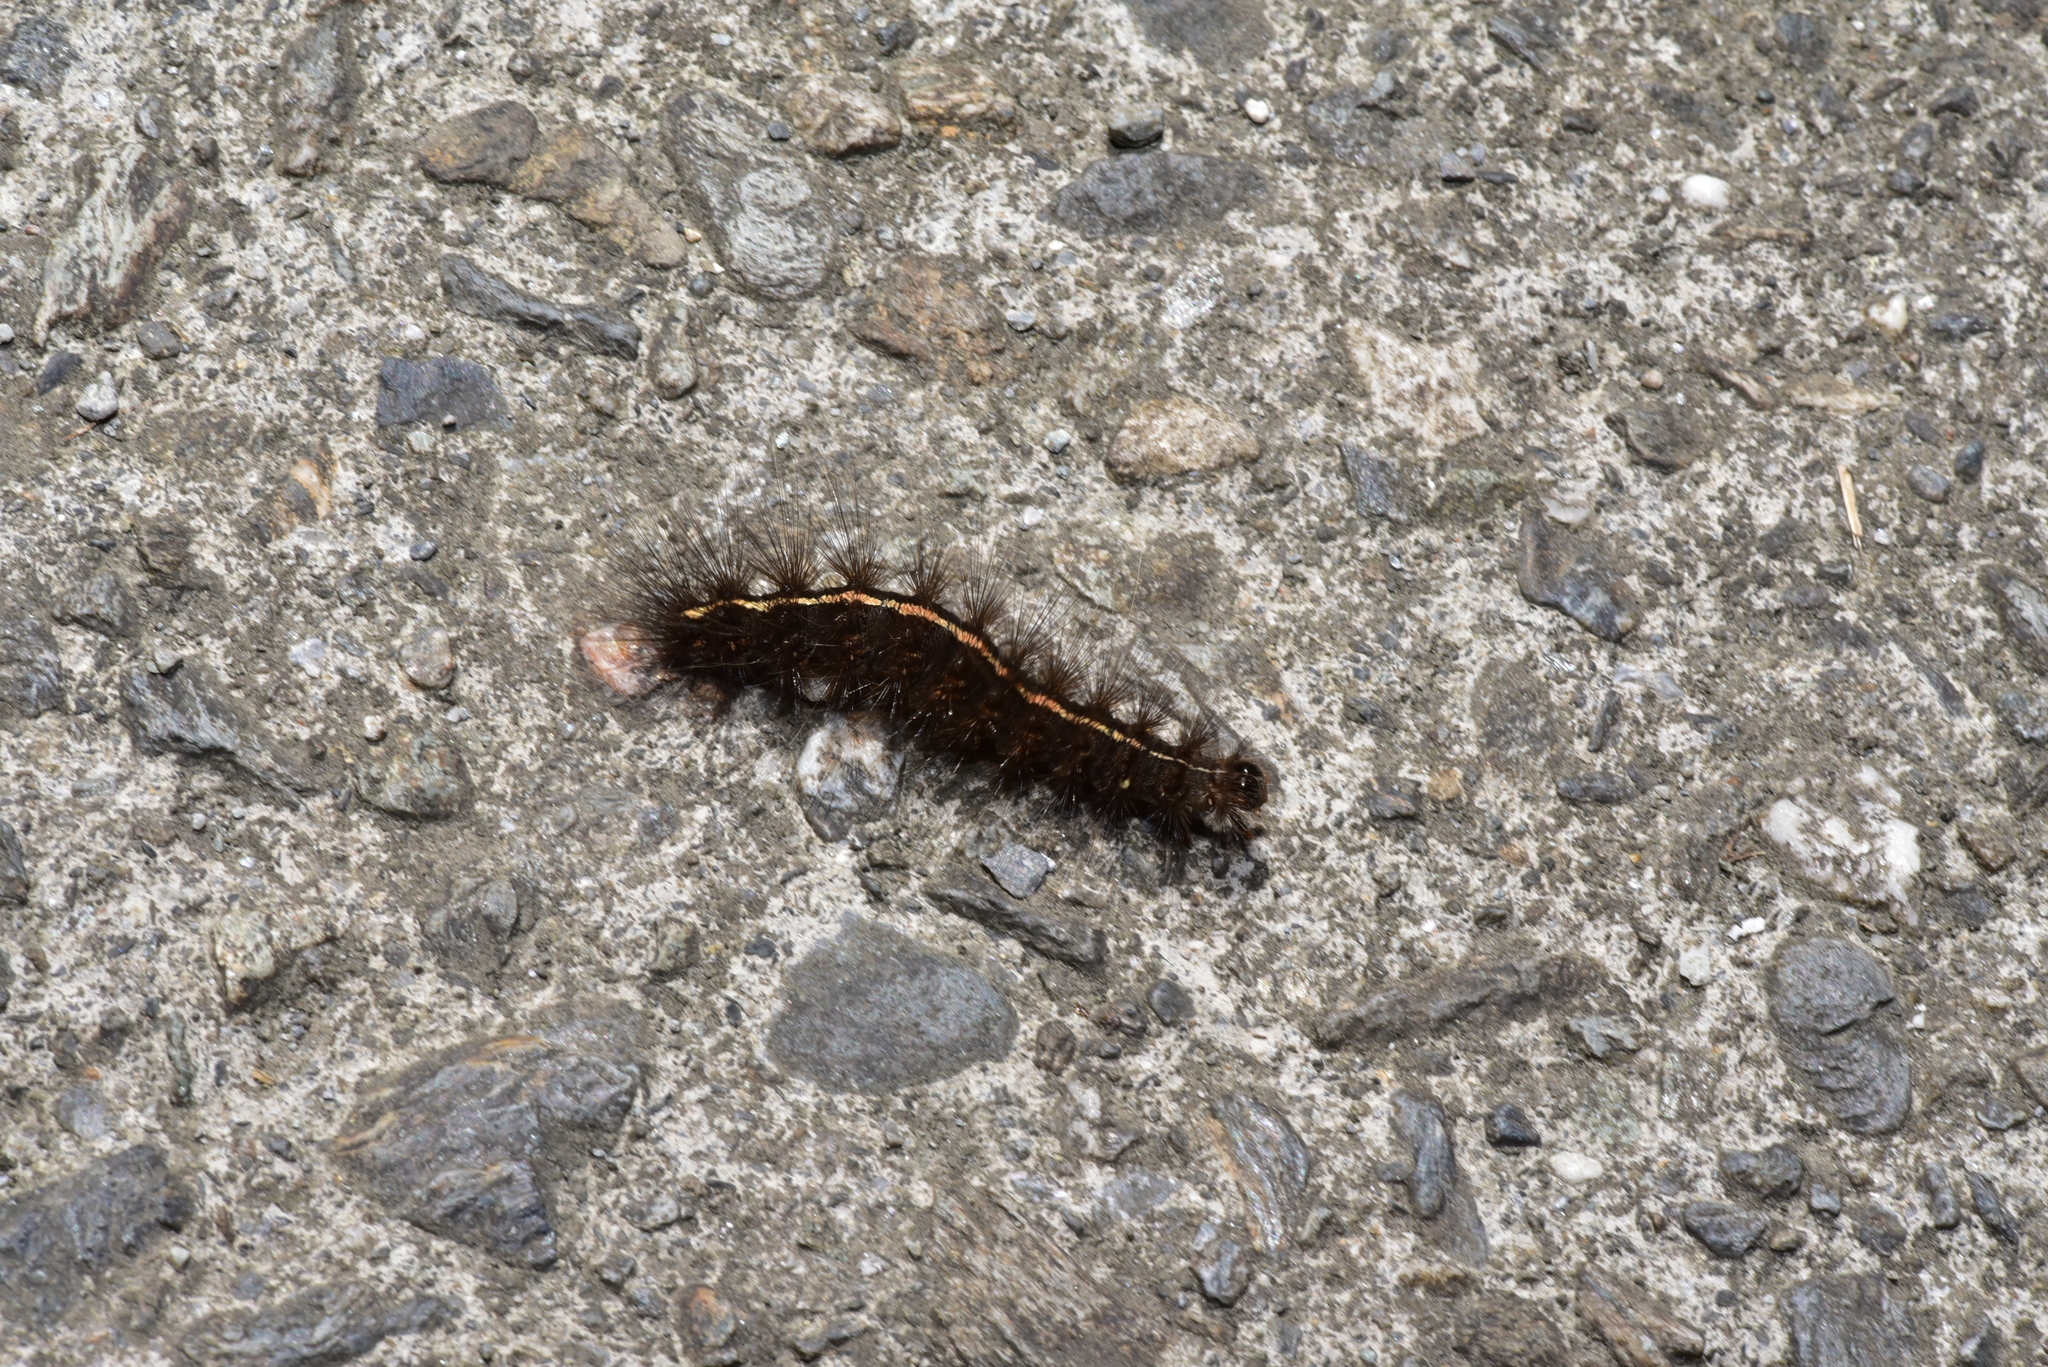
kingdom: Animalia
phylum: Arthropoda
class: Insecta
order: Lepidoptera
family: Erebidae
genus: Creatonotos
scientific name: Creatonotos transiens
